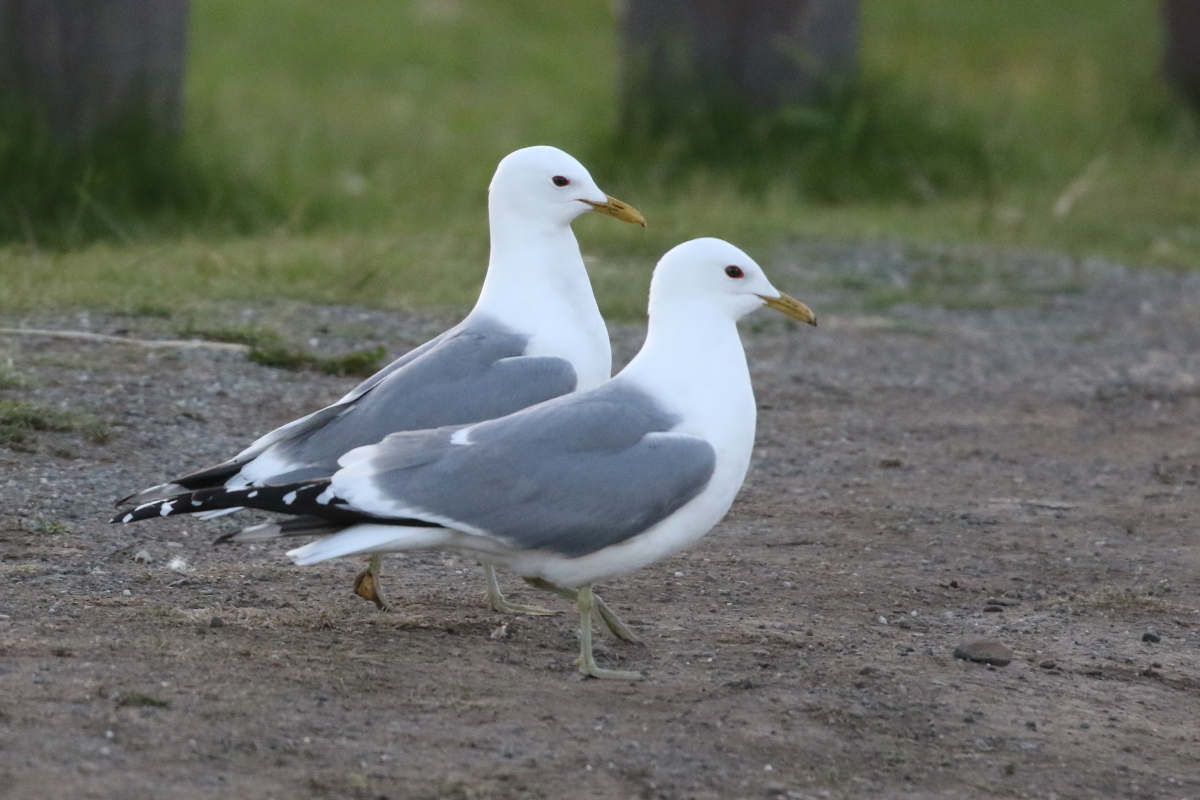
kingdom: Animalia
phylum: Chordata
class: Aves
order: Charadriiformes
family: Laridae
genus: Larus
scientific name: Larus brachyrhynchus
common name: Short-billed gull
